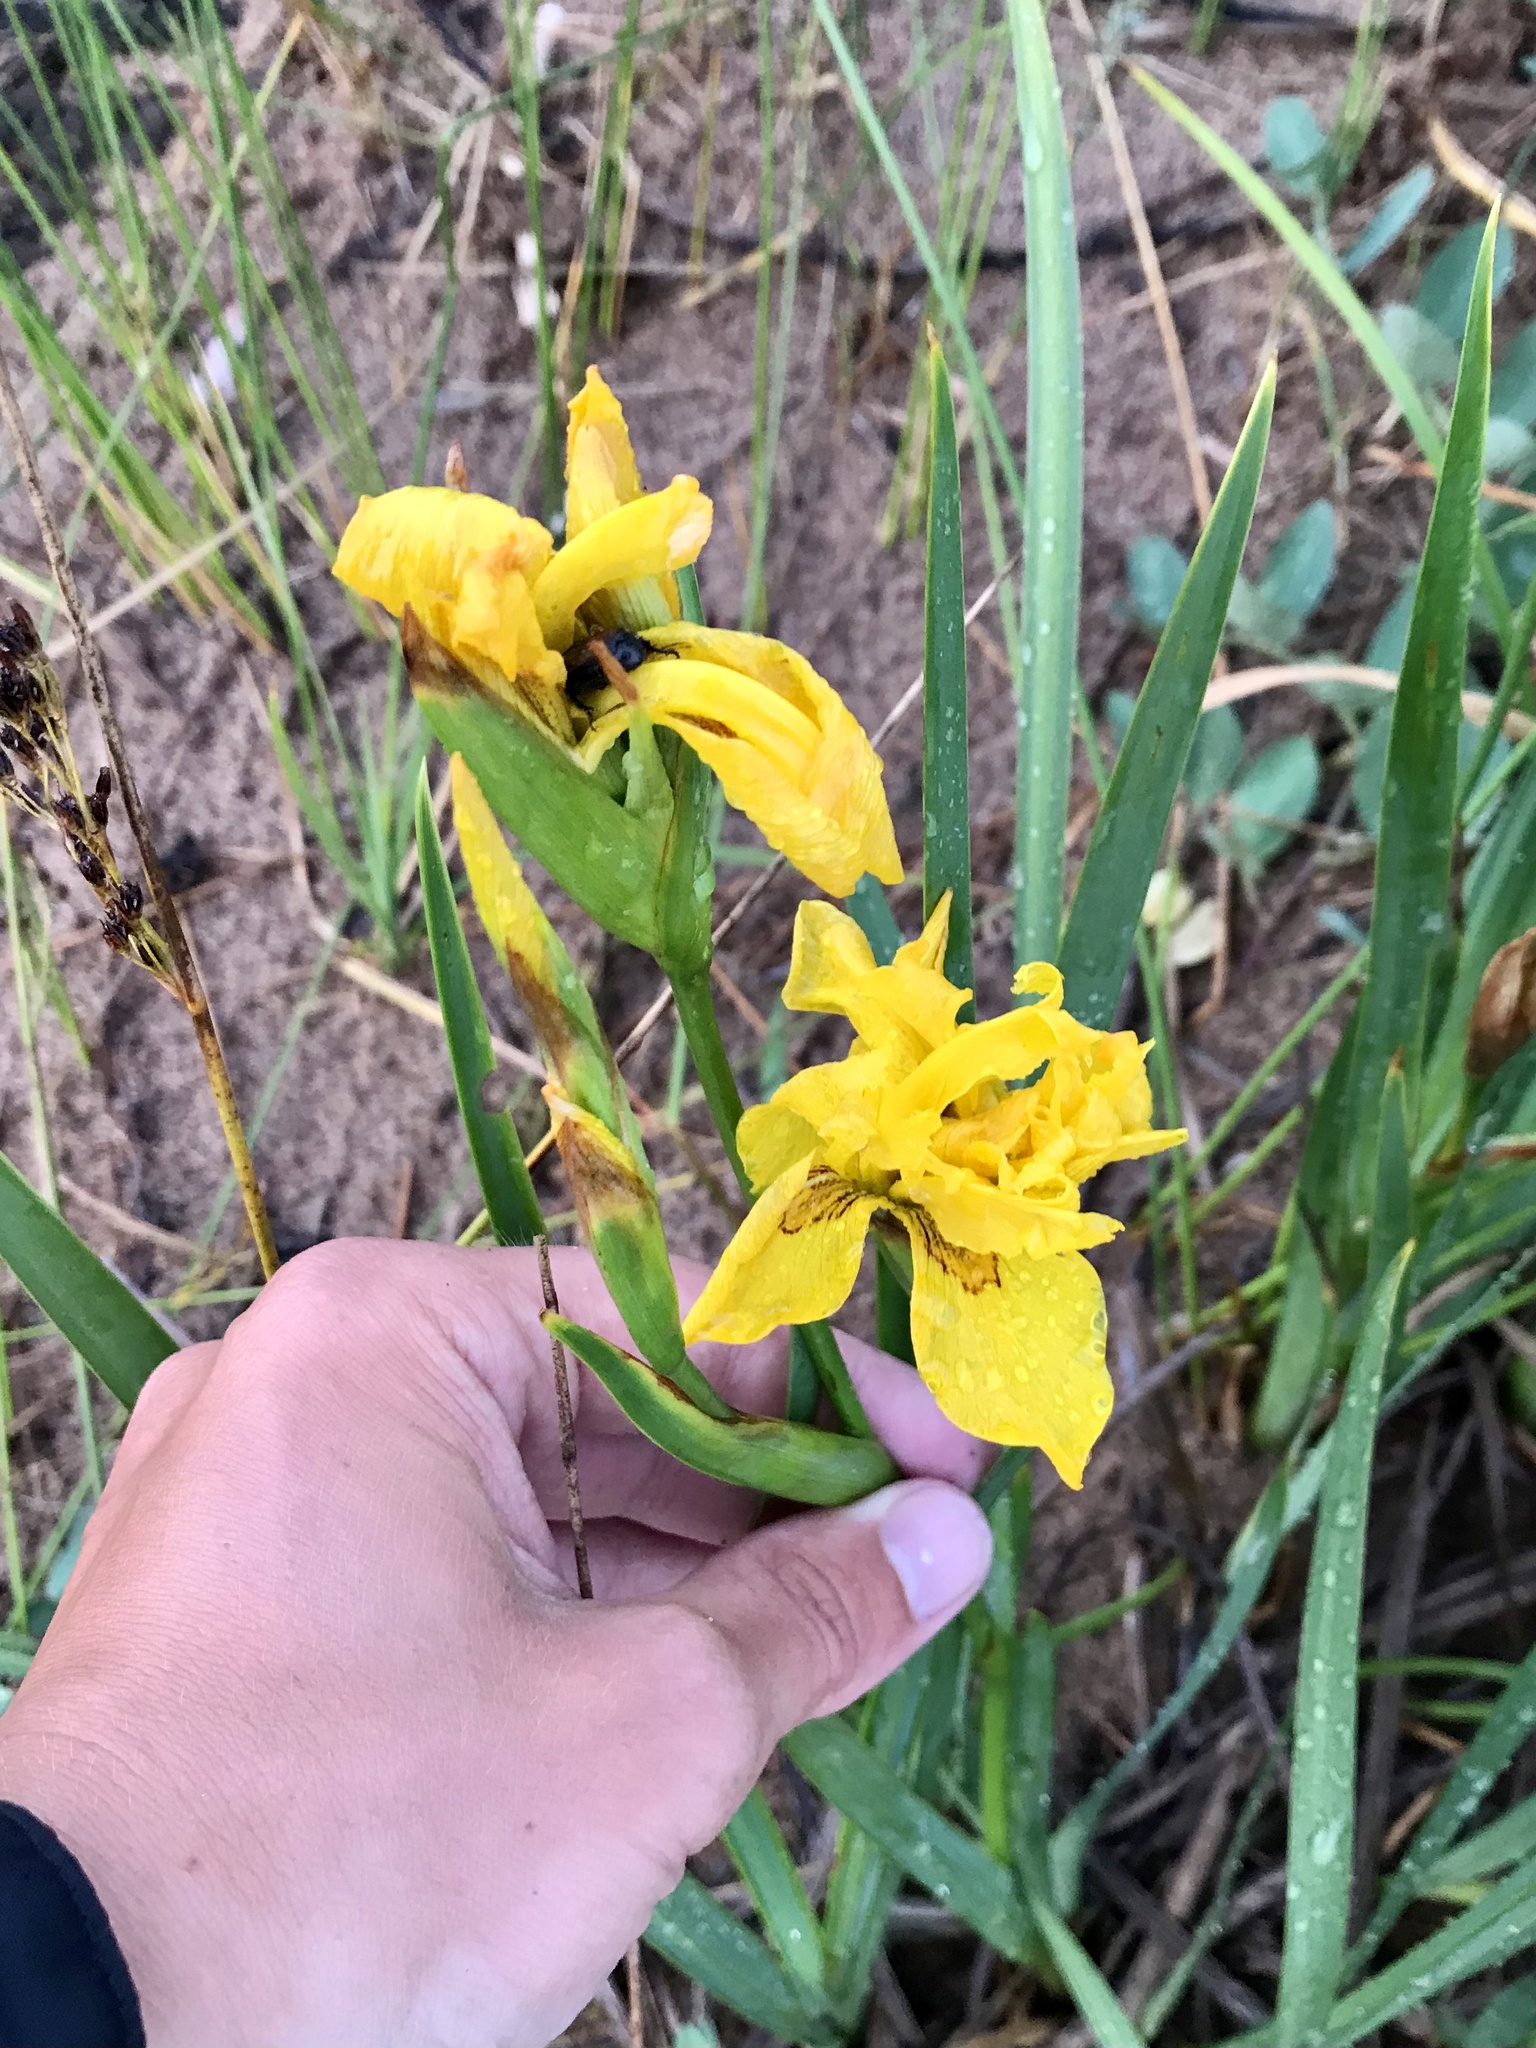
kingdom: Plantae
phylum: Tracheophyta
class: Liliopsida
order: Asparagales
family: Iridaceae
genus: Iris
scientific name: Iris pseudacorus
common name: Yellow flag
